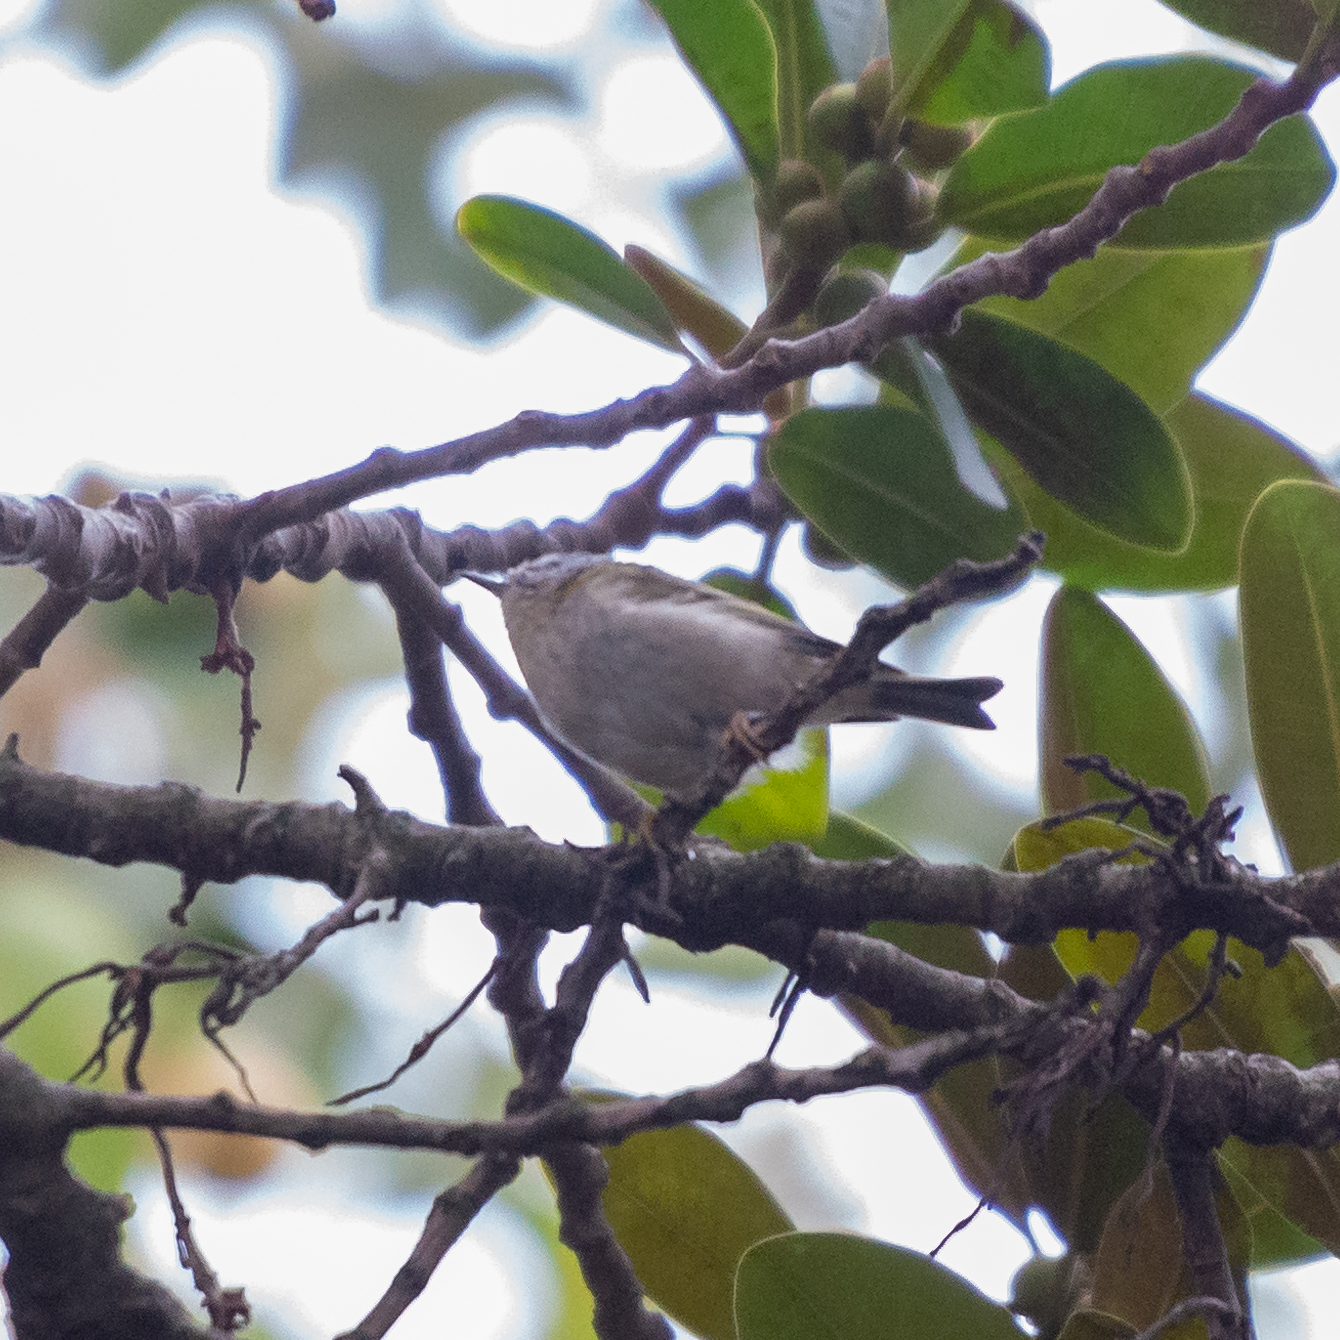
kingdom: Animalia
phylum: Chordata
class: Aves
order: Passeriformes
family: Regulidae
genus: Regulus
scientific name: Regulus ignicapilla
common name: Firecrest
